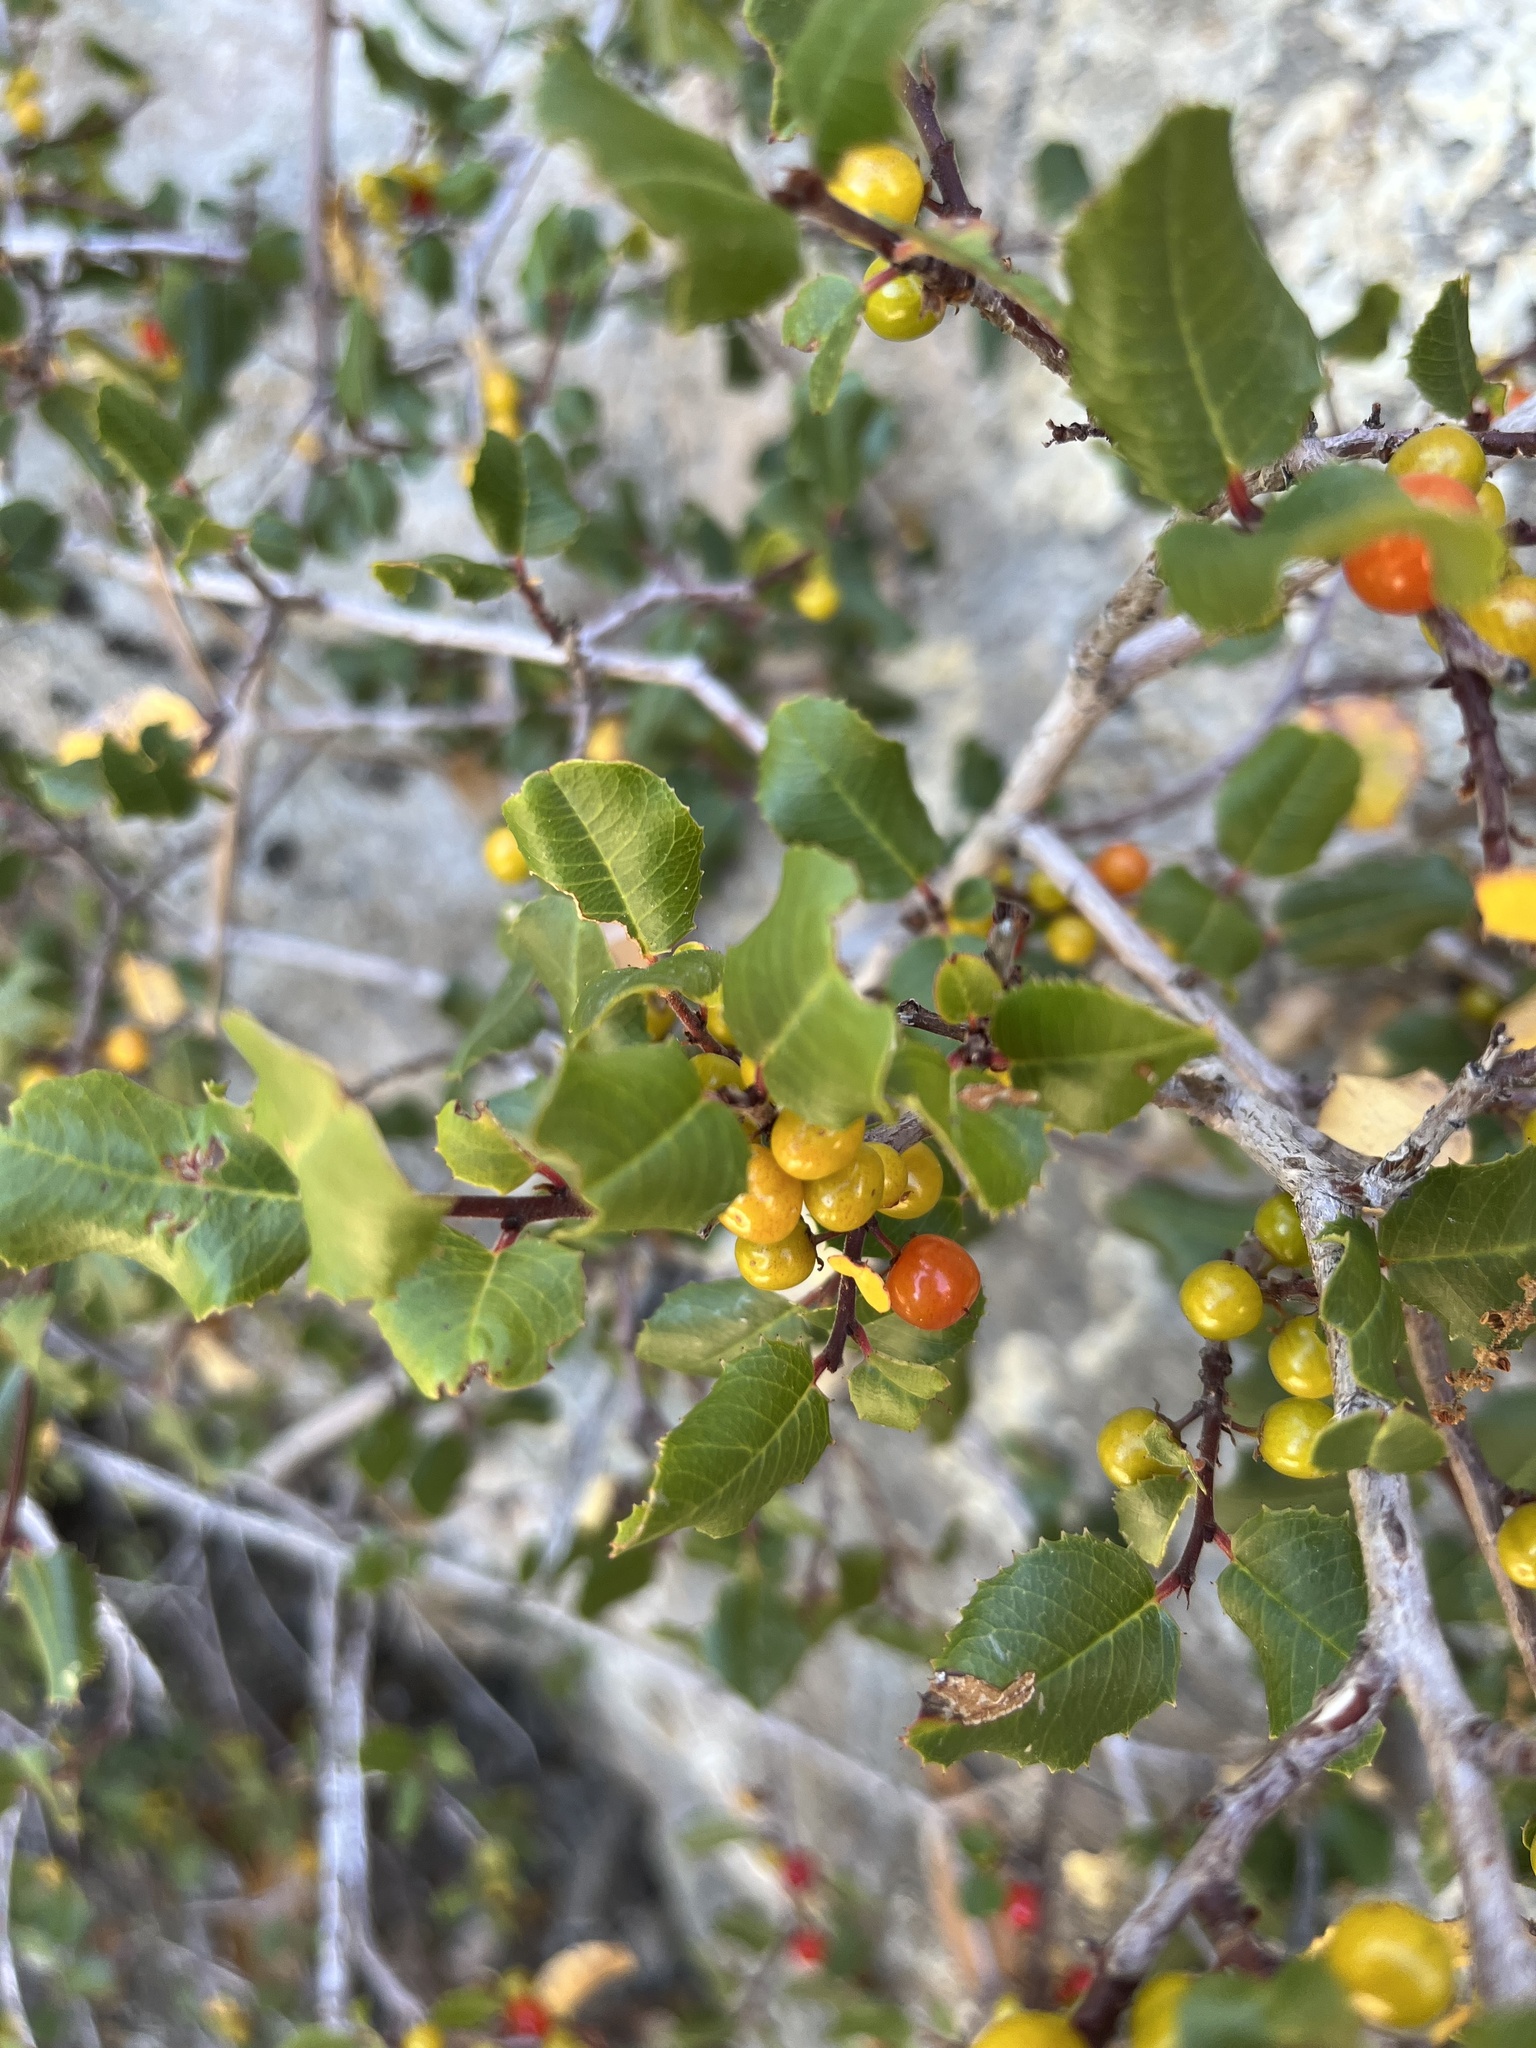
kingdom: Plantae
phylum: Tracheophyta
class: Magnoliopsida
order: Rosales
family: Rhamnaceae
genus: Endotropis
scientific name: Endotropis crocea
